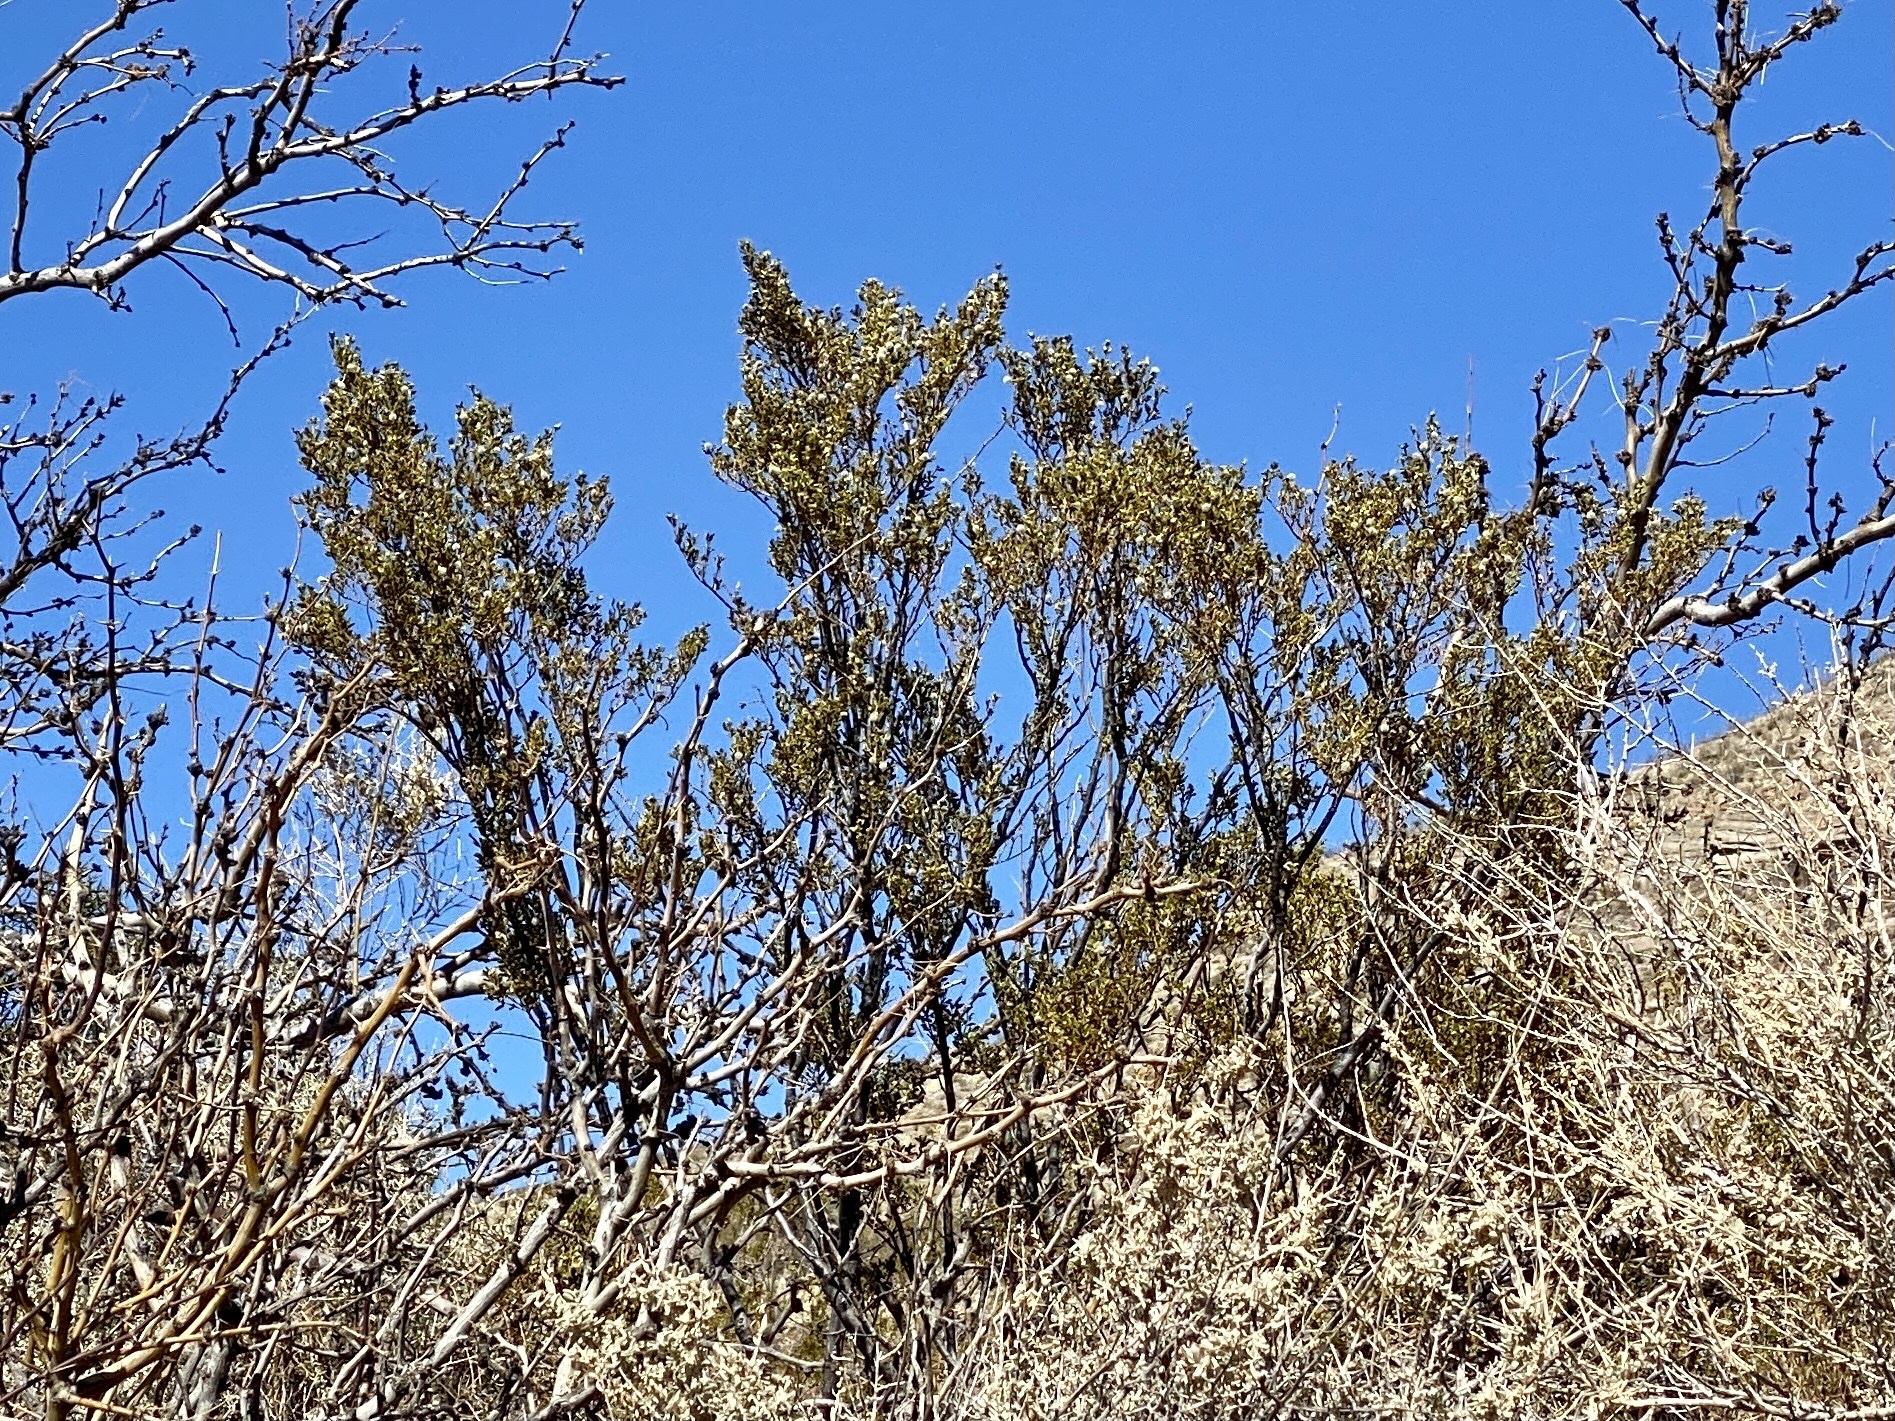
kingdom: Plantae
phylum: Tracheophyta
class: Magnoliopsida
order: Zygophyllales
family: Zygophyllaceae
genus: Larrea
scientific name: Larrea tridentata
